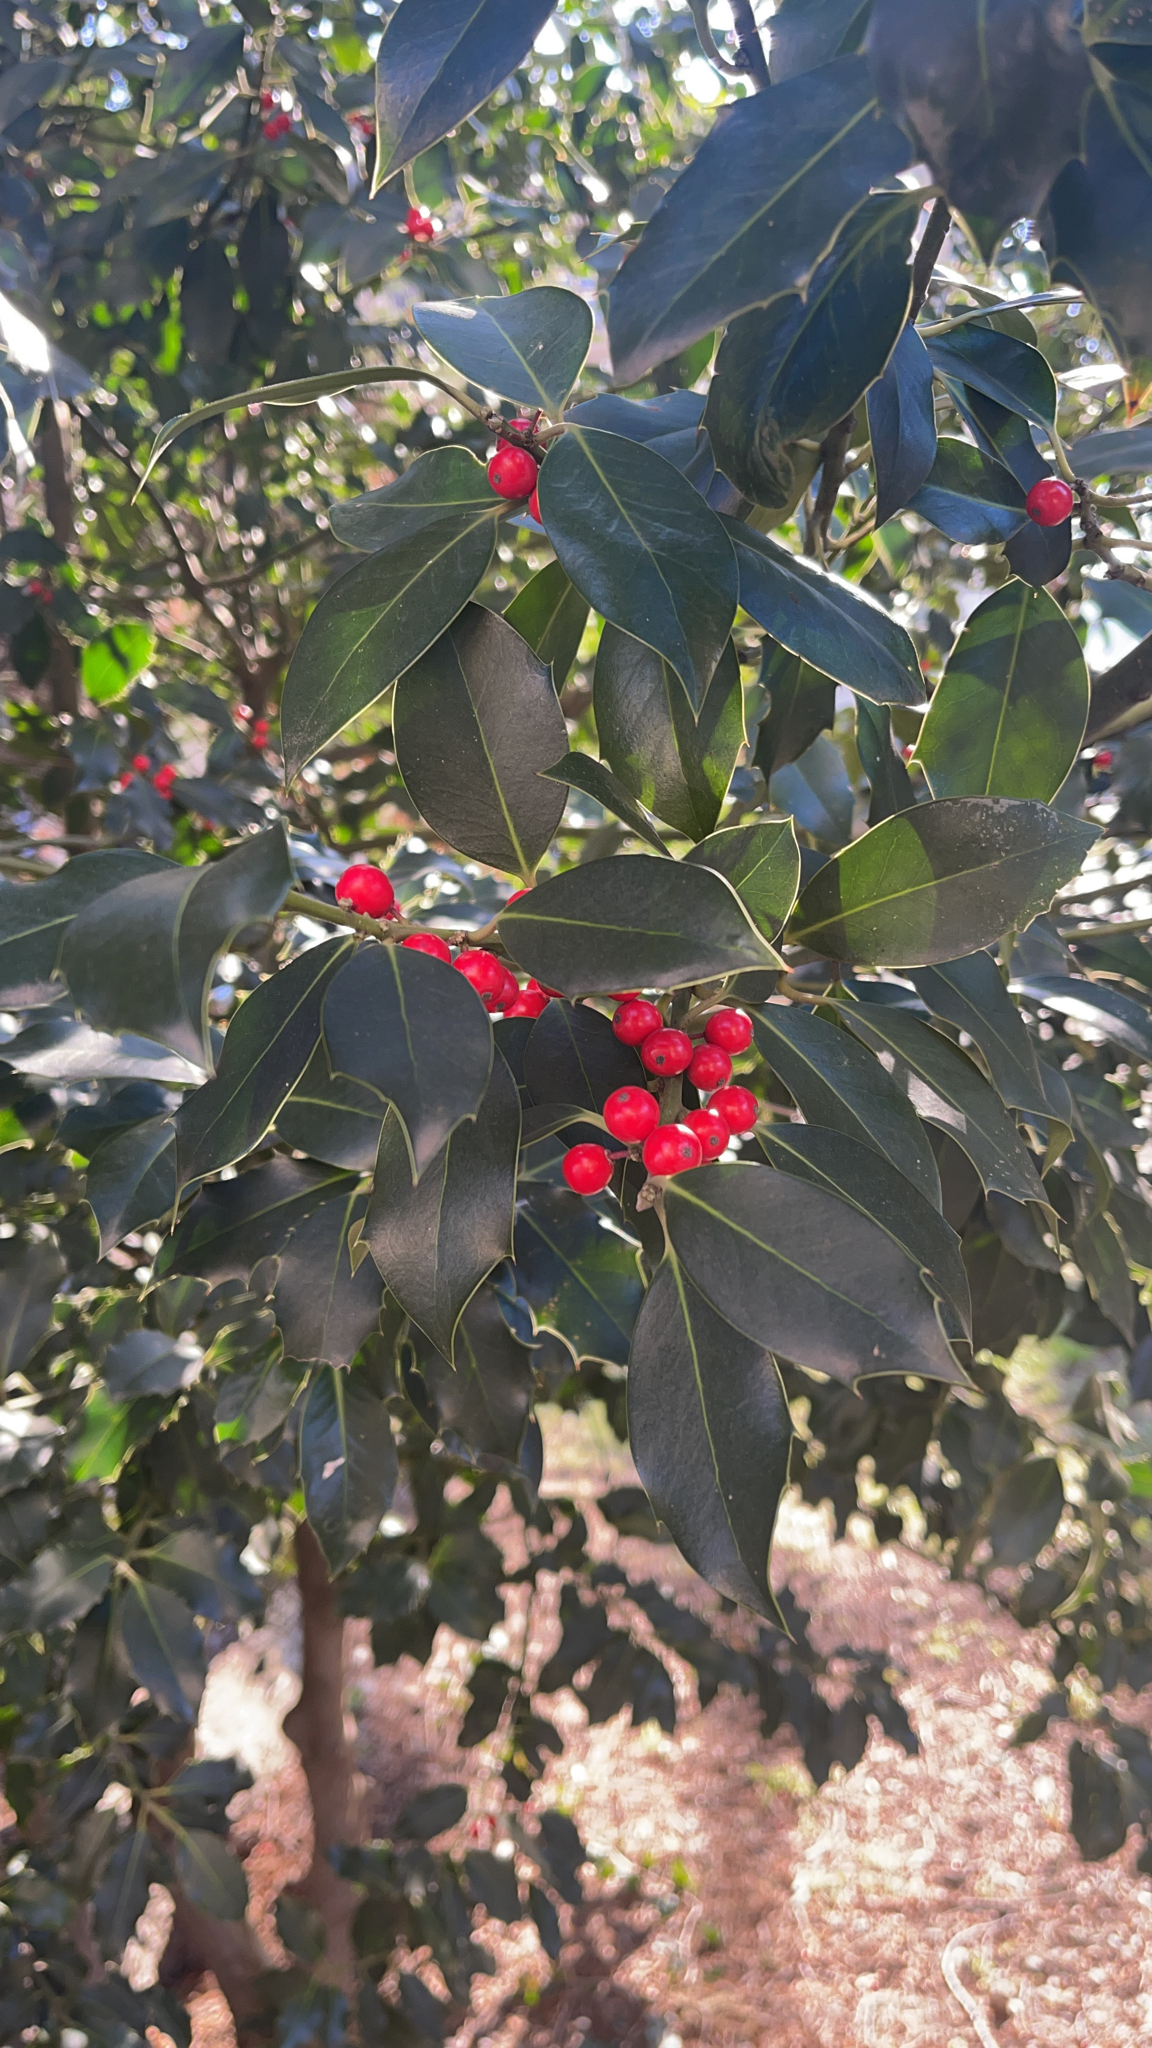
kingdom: Plantae
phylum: Tracheophyta
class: Magnoliopsida
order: Aquifoliales
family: Aquifoliaceae
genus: Ilex
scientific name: Ilex aquifolium
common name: English holly
